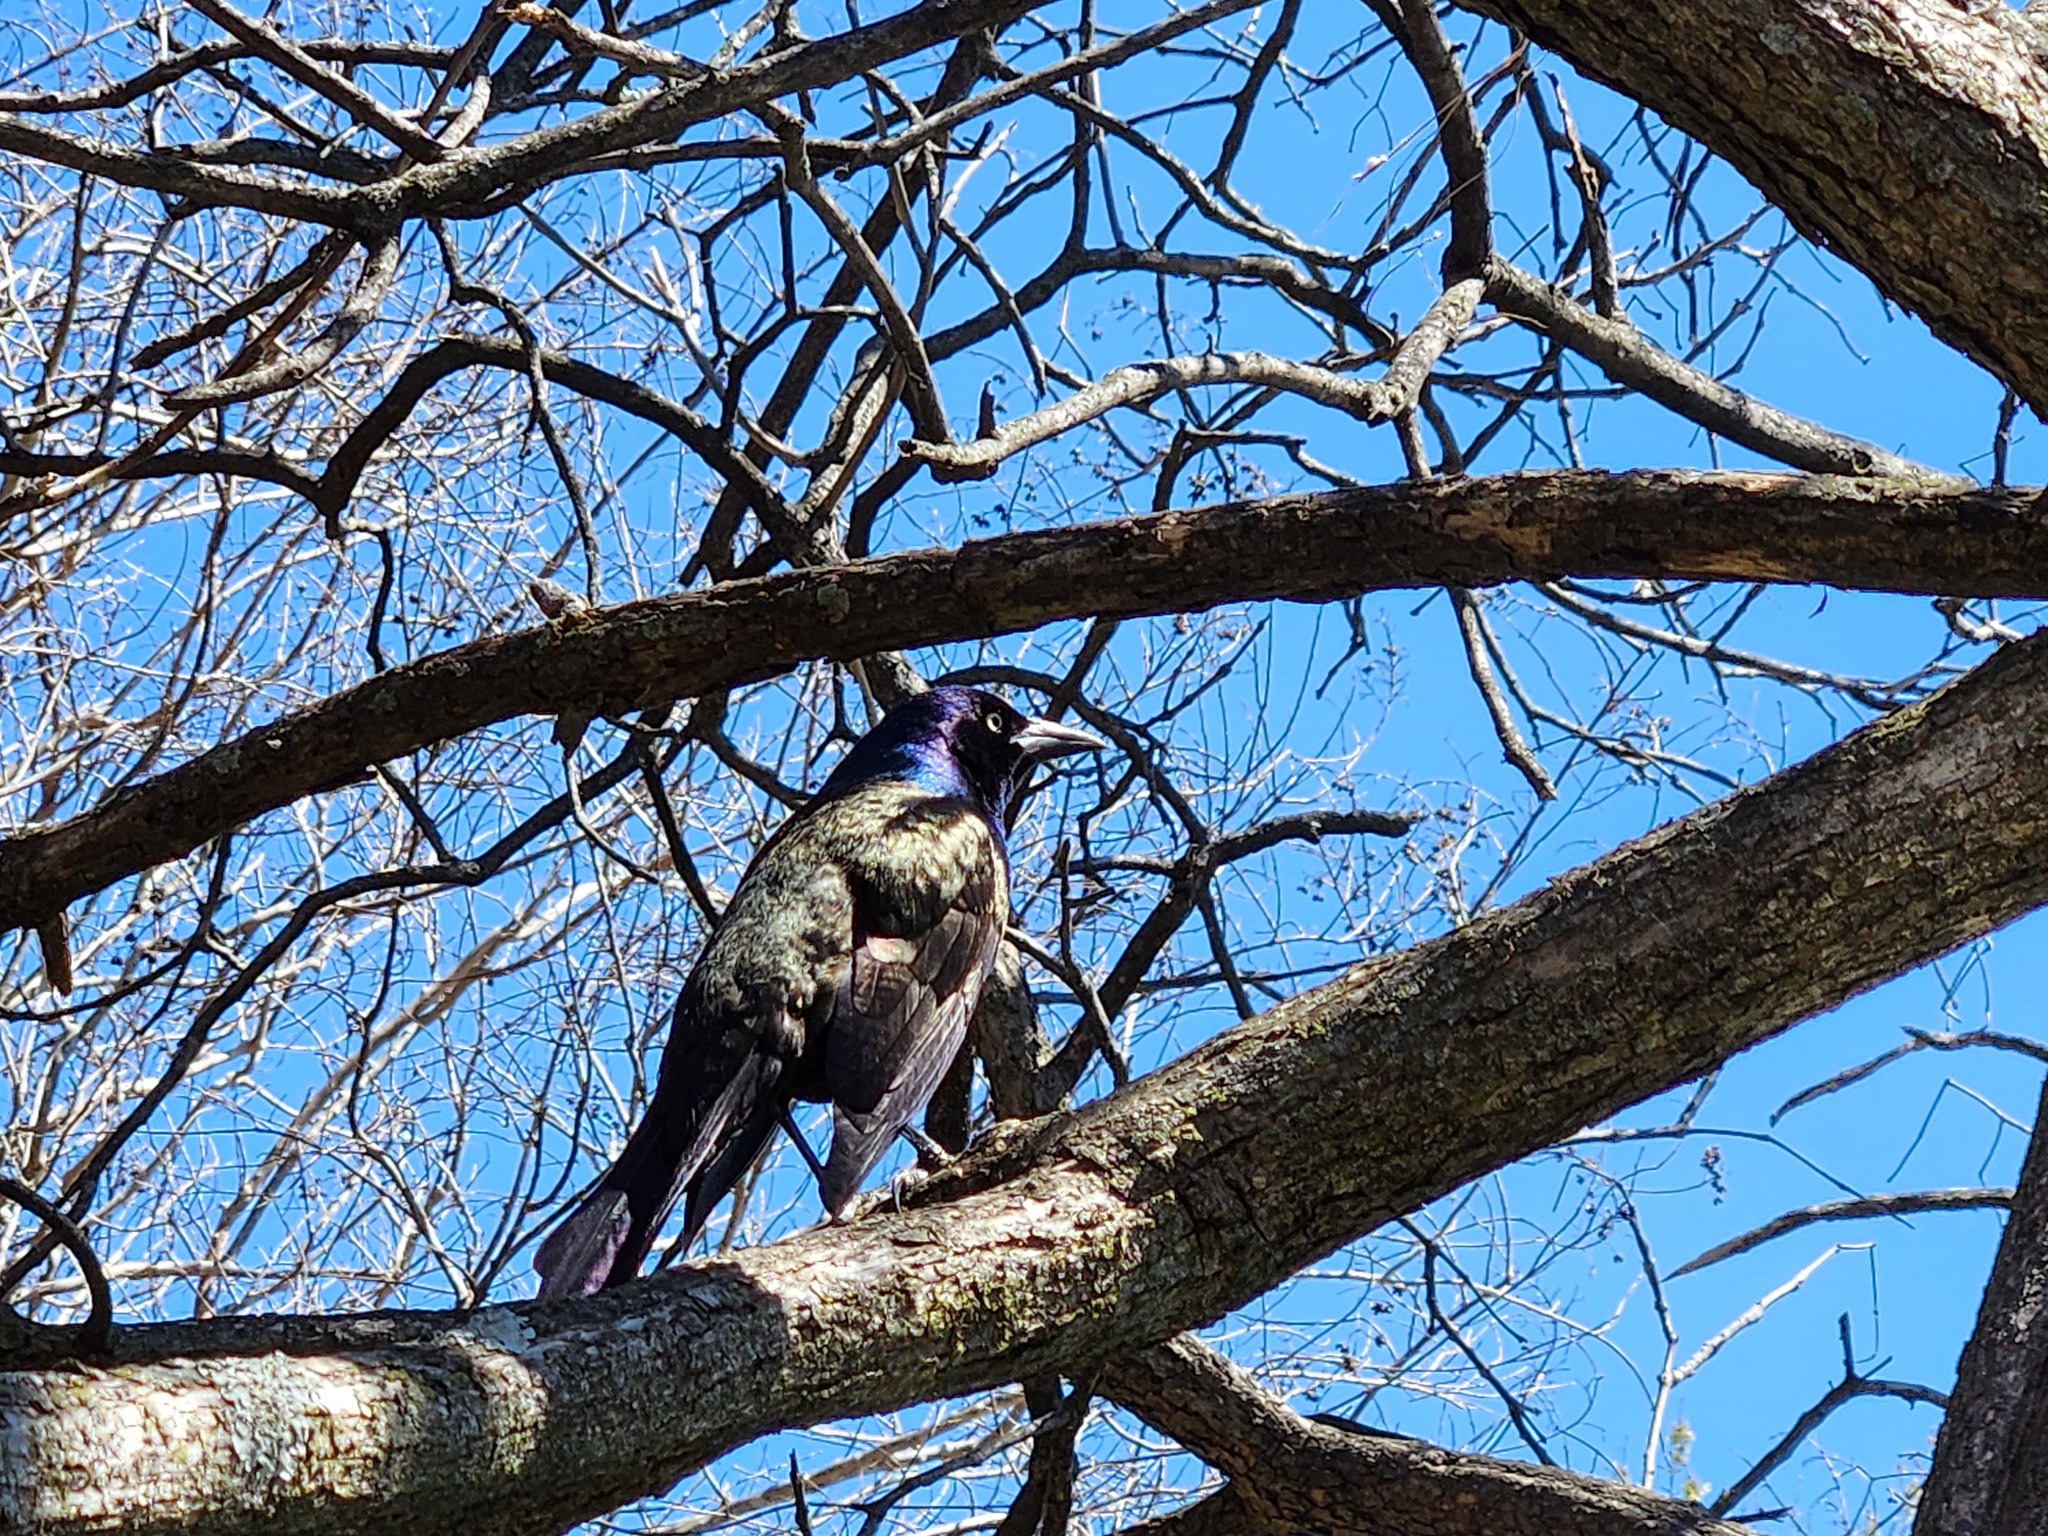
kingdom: Animalia
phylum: Chordata
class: Aves
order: Passeriformes
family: Icteridae
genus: Quiscalus
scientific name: Quiscalus quiscula
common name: Common grackle
